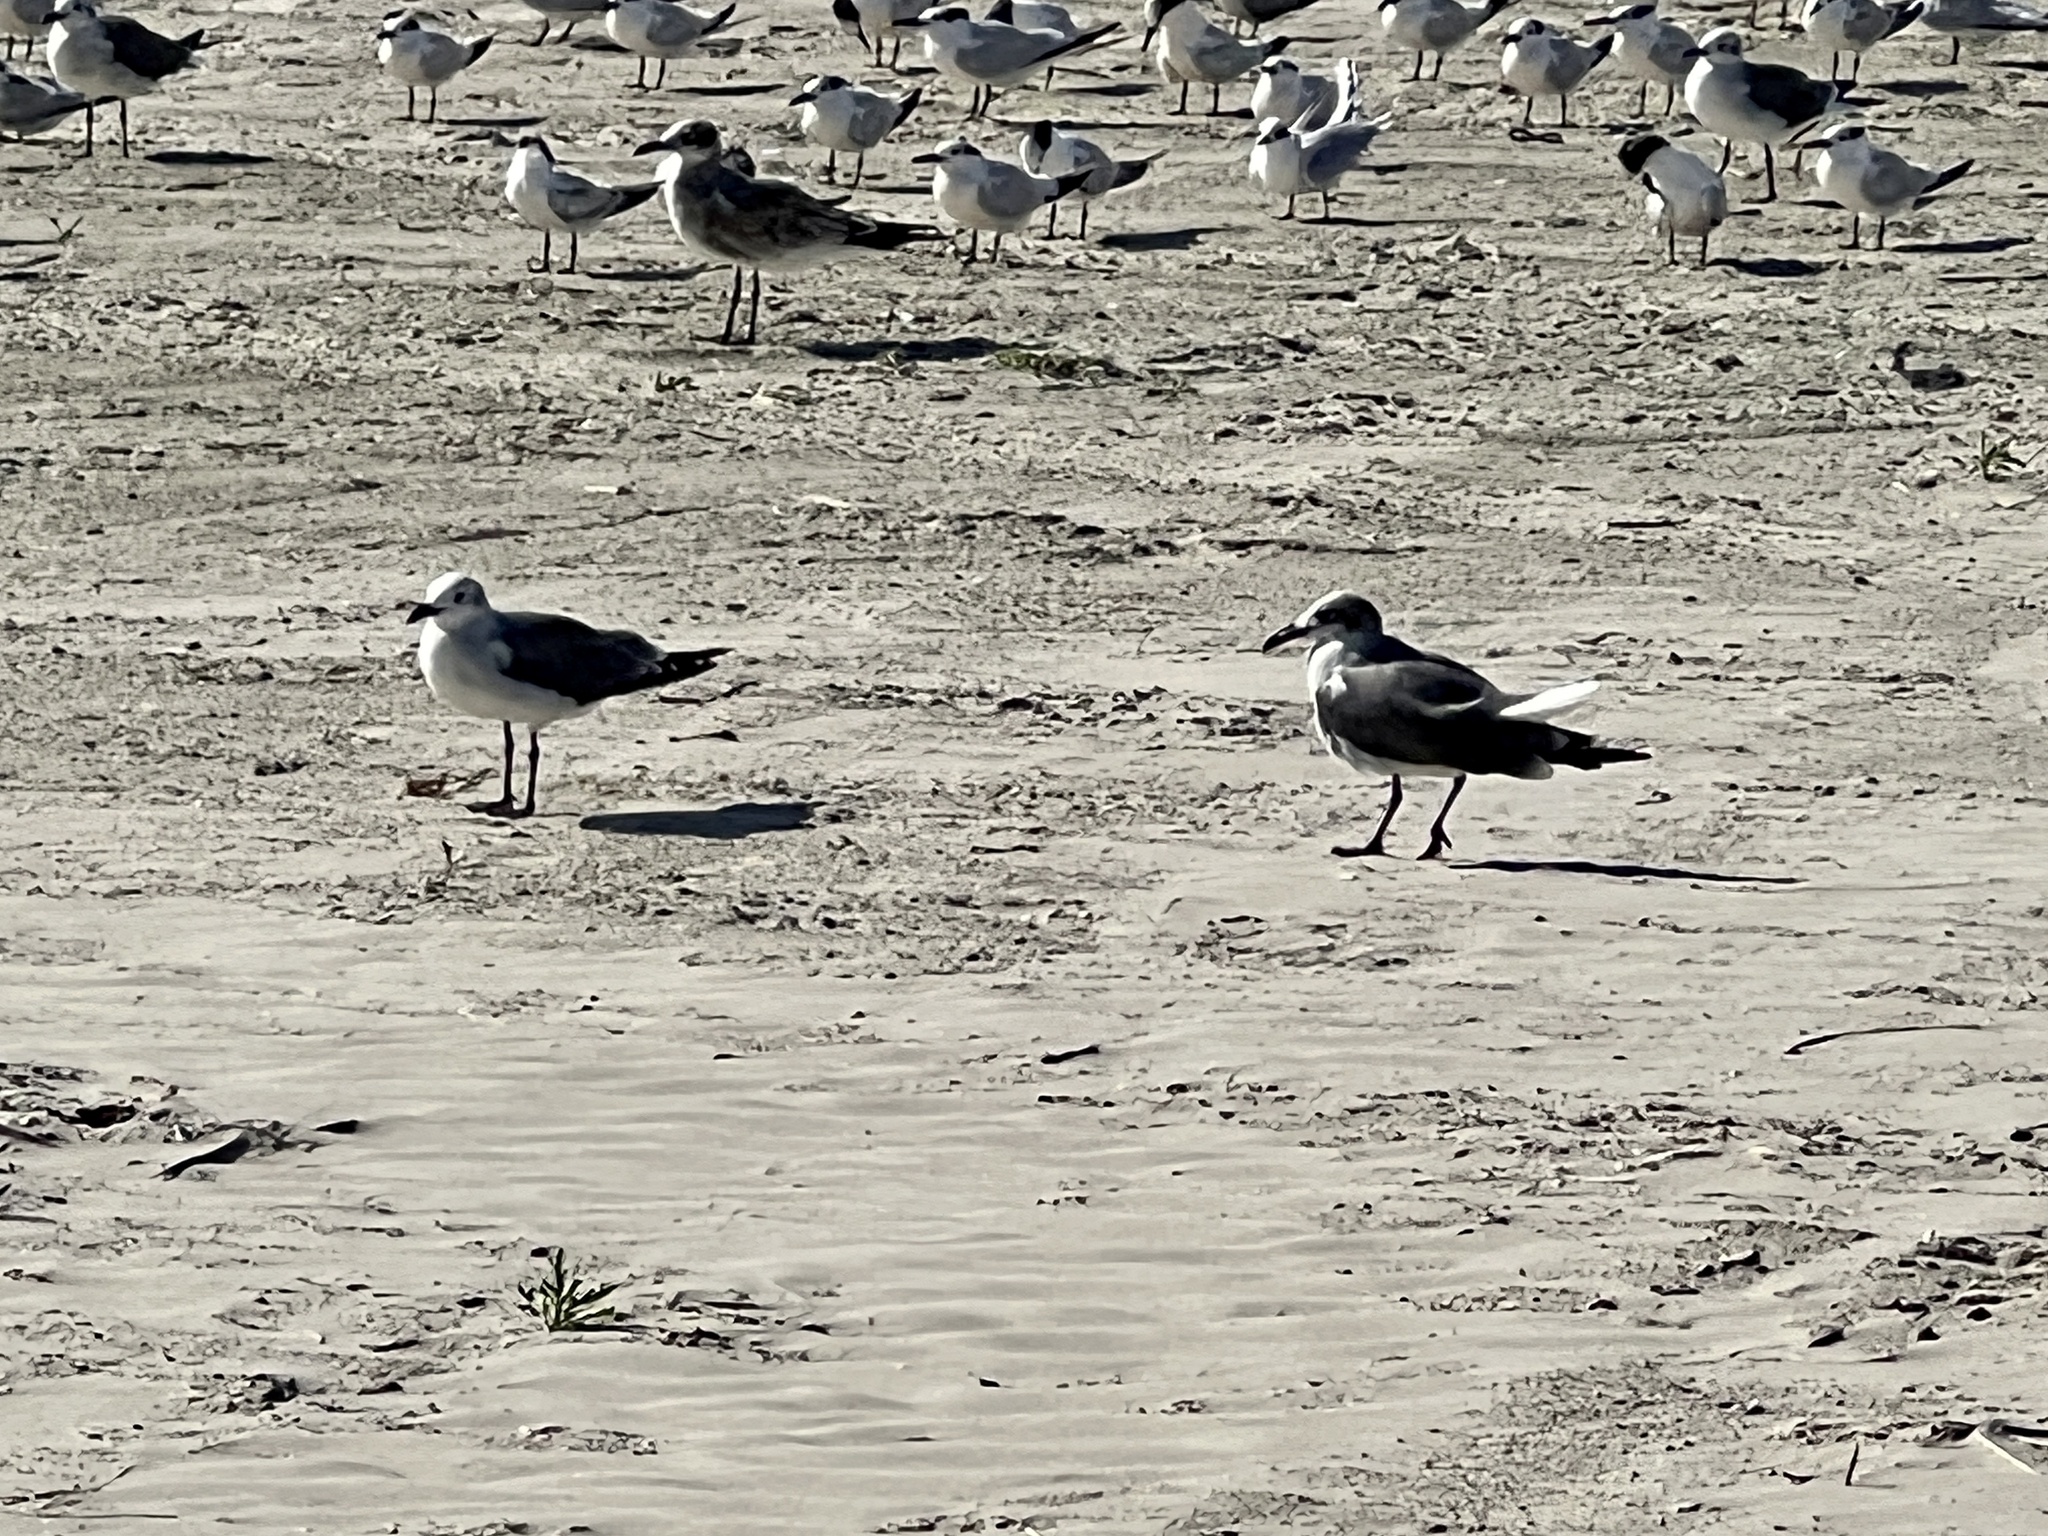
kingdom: Animalia
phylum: Chordata
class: Aves
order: Charadriiformes
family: Laridae
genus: Leucophaeus
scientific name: Leucophaeus atricilla
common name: Laughing gull
